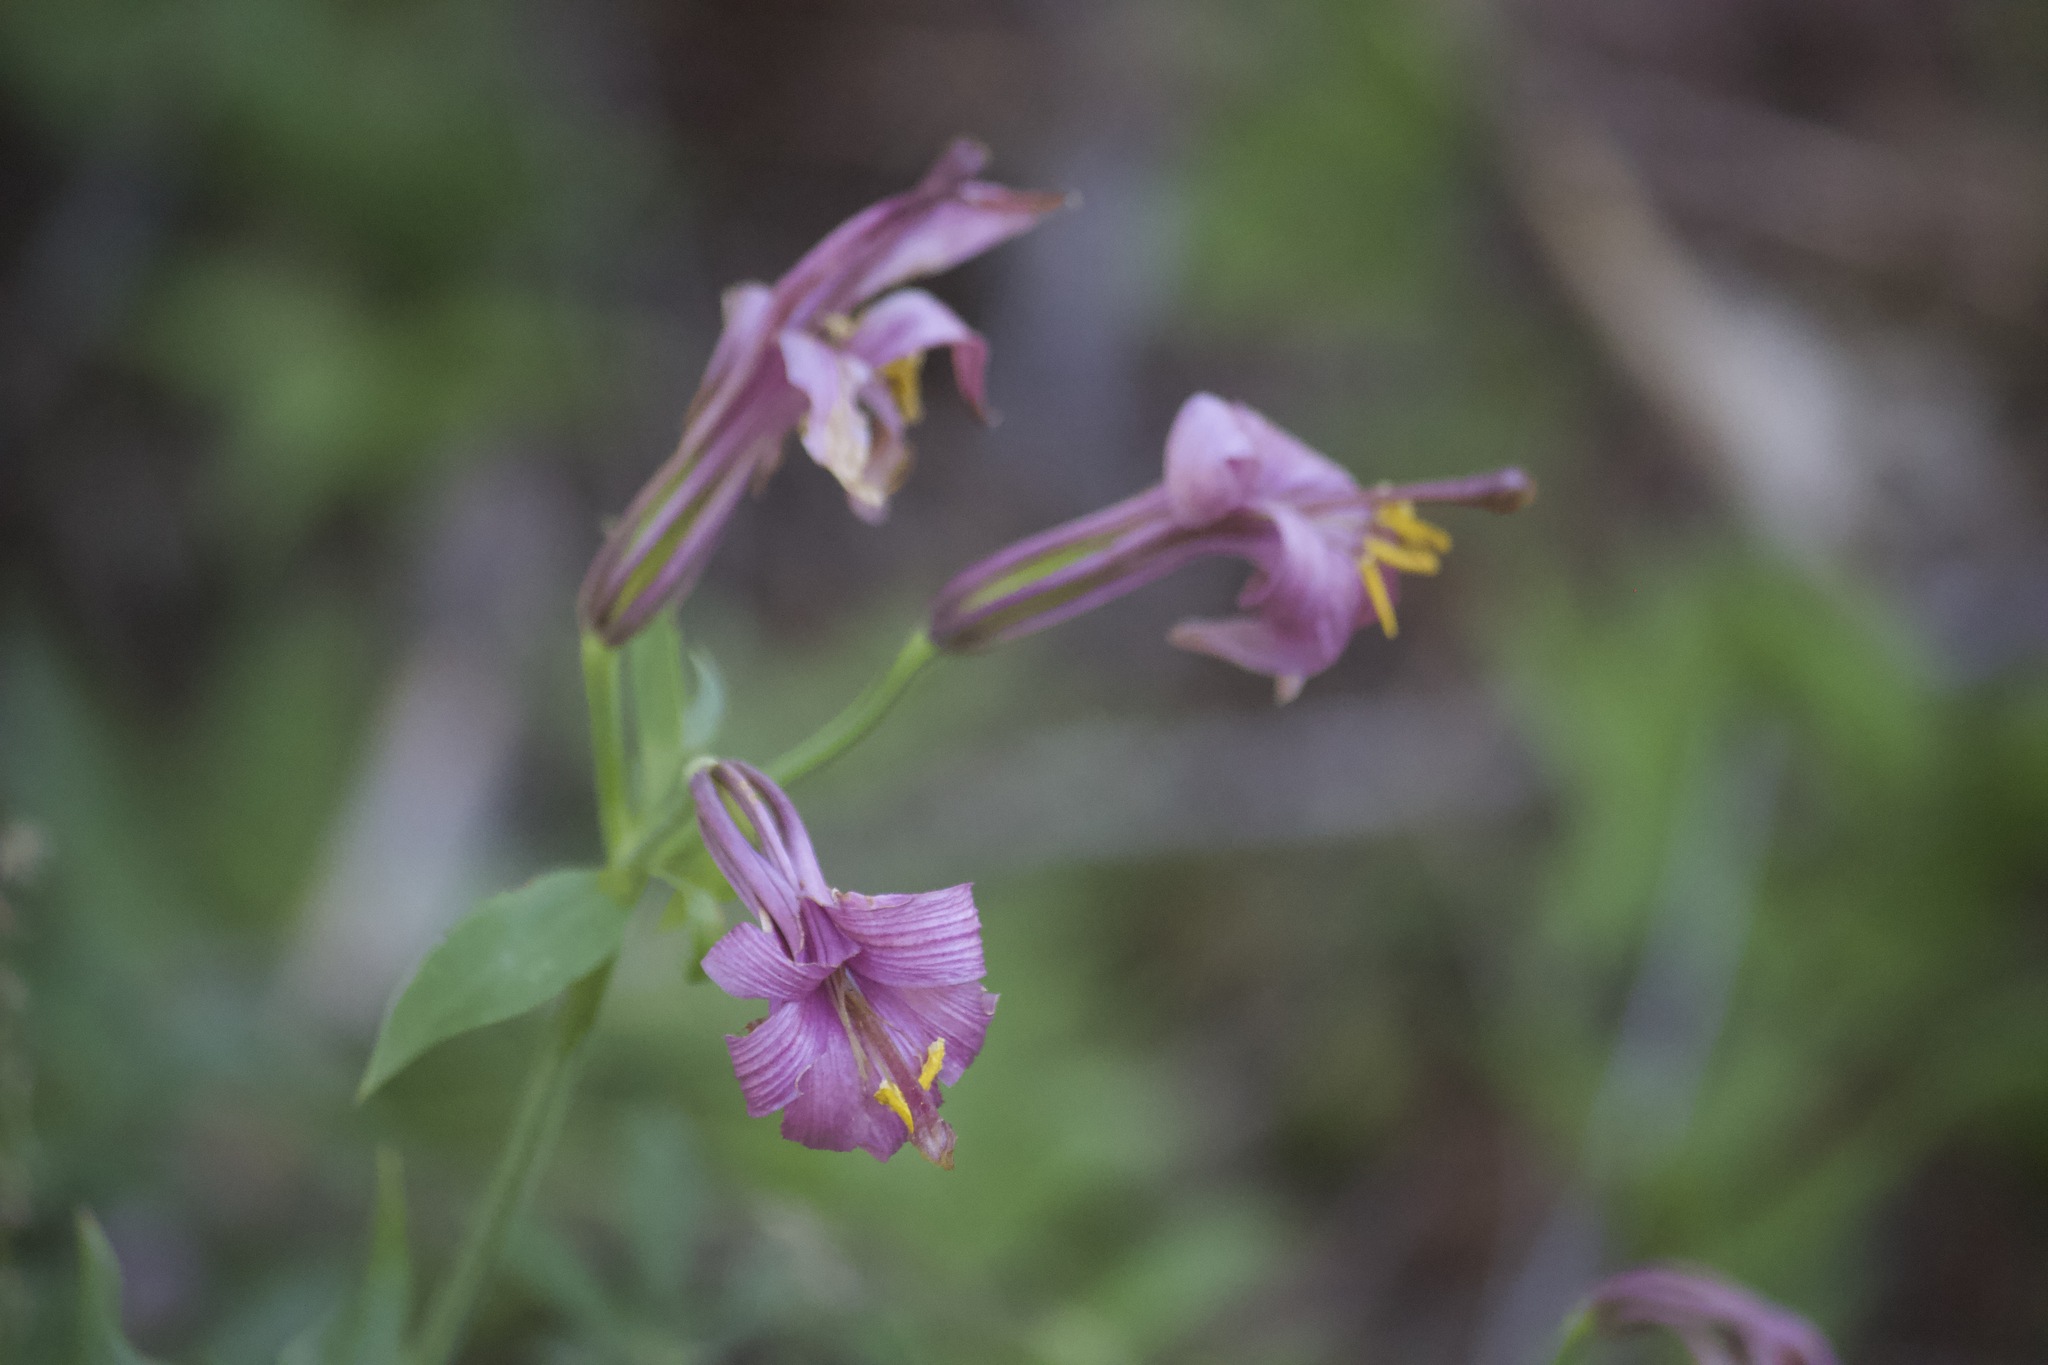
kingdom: Plantae
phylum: Tracheophyta
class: Liliopsida
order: Liliales
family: Liliaceae
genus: Lilium
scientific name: Lilium washingtonianum
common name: Washington lily
